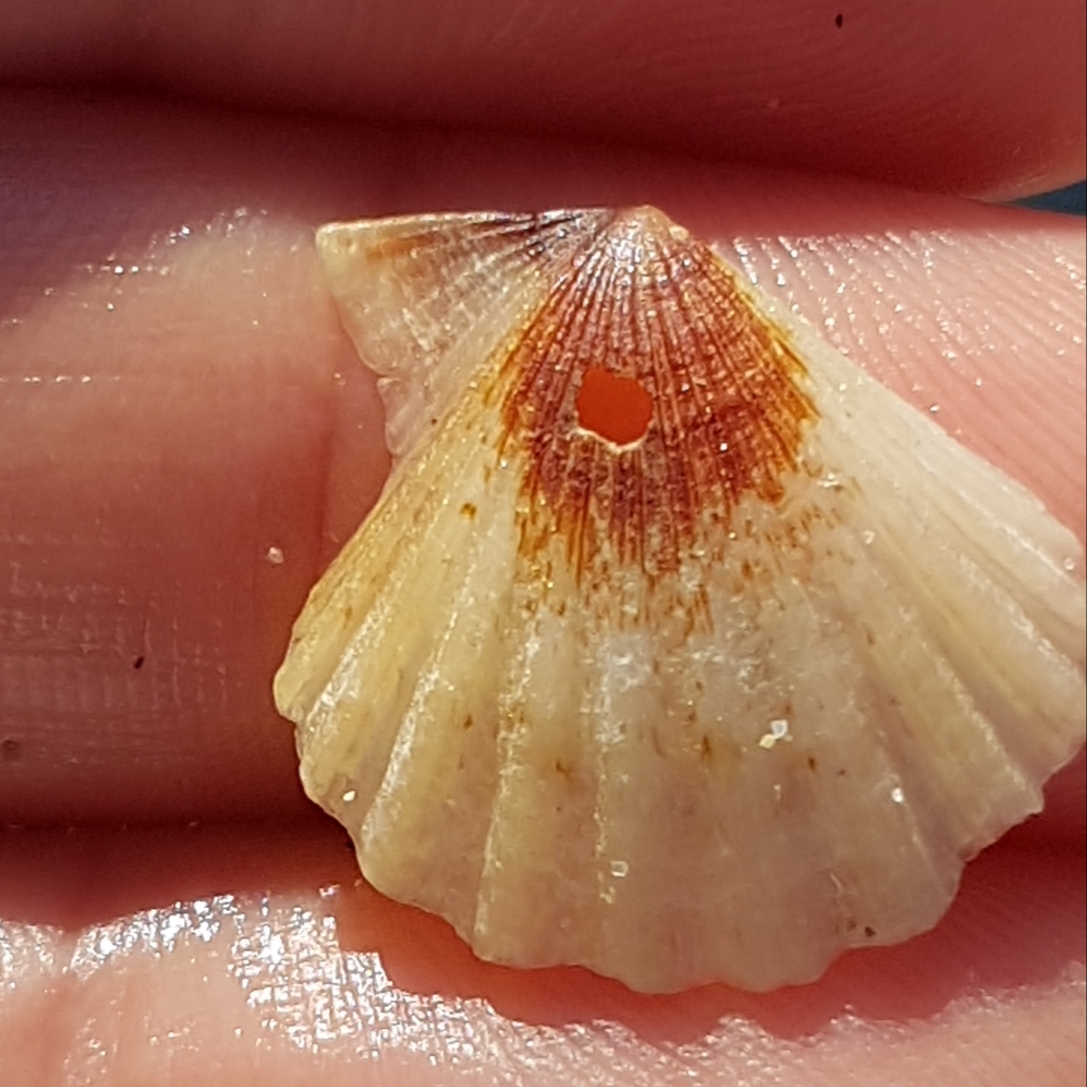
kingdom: Animalia
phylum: Mollusca
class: Bivalvia
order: Pectinida
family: Pectinidae
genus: Flexopecten
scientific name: Flexopecten glaber
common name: Smooth scallop
